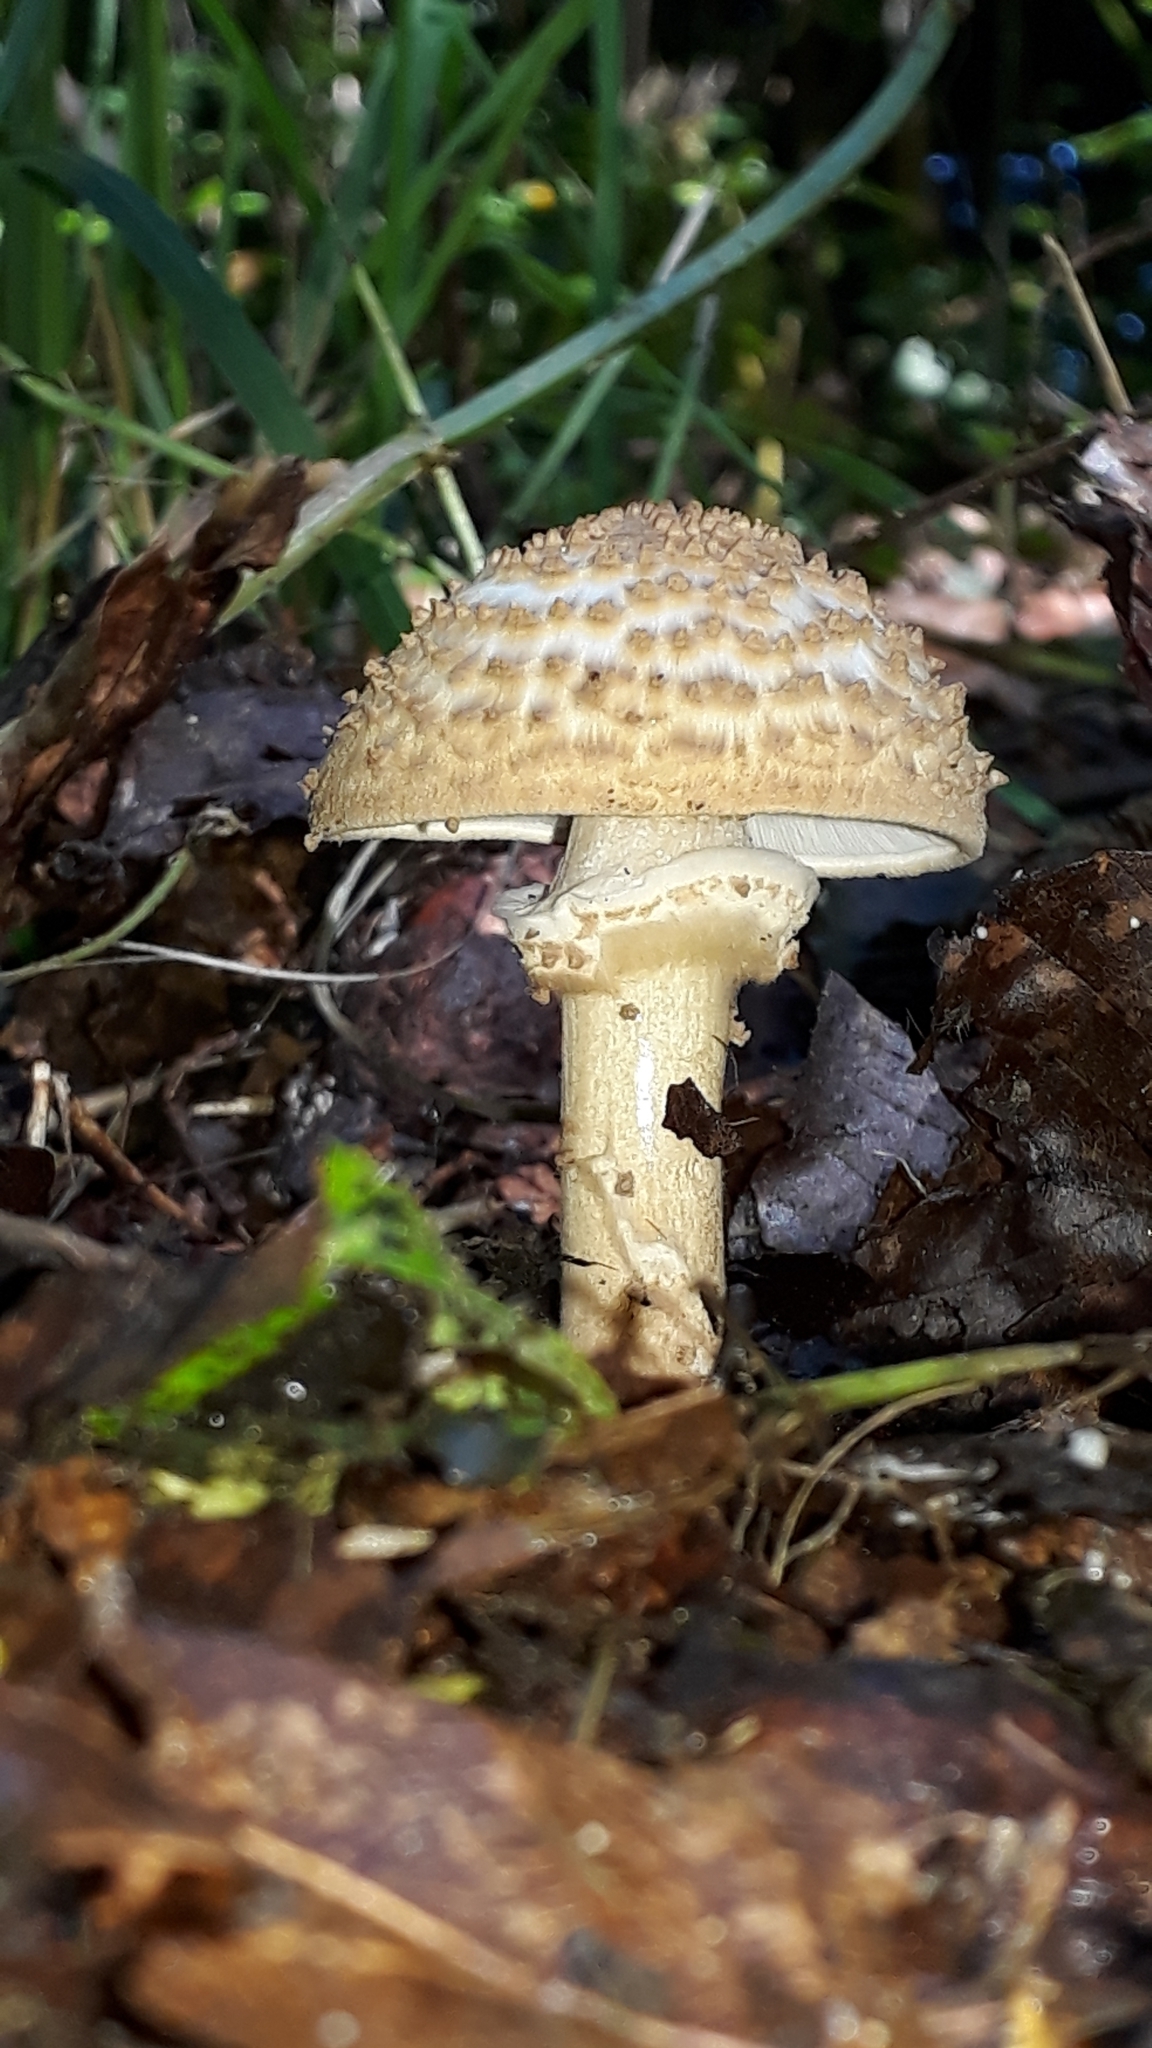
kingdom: Fungi
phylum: Basidiomycota
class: Agaricomycetes
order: Agaricales
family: Agaricaceae
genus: Echinoderma
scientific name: Echinoderma asperum
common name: Freckled dapperling
